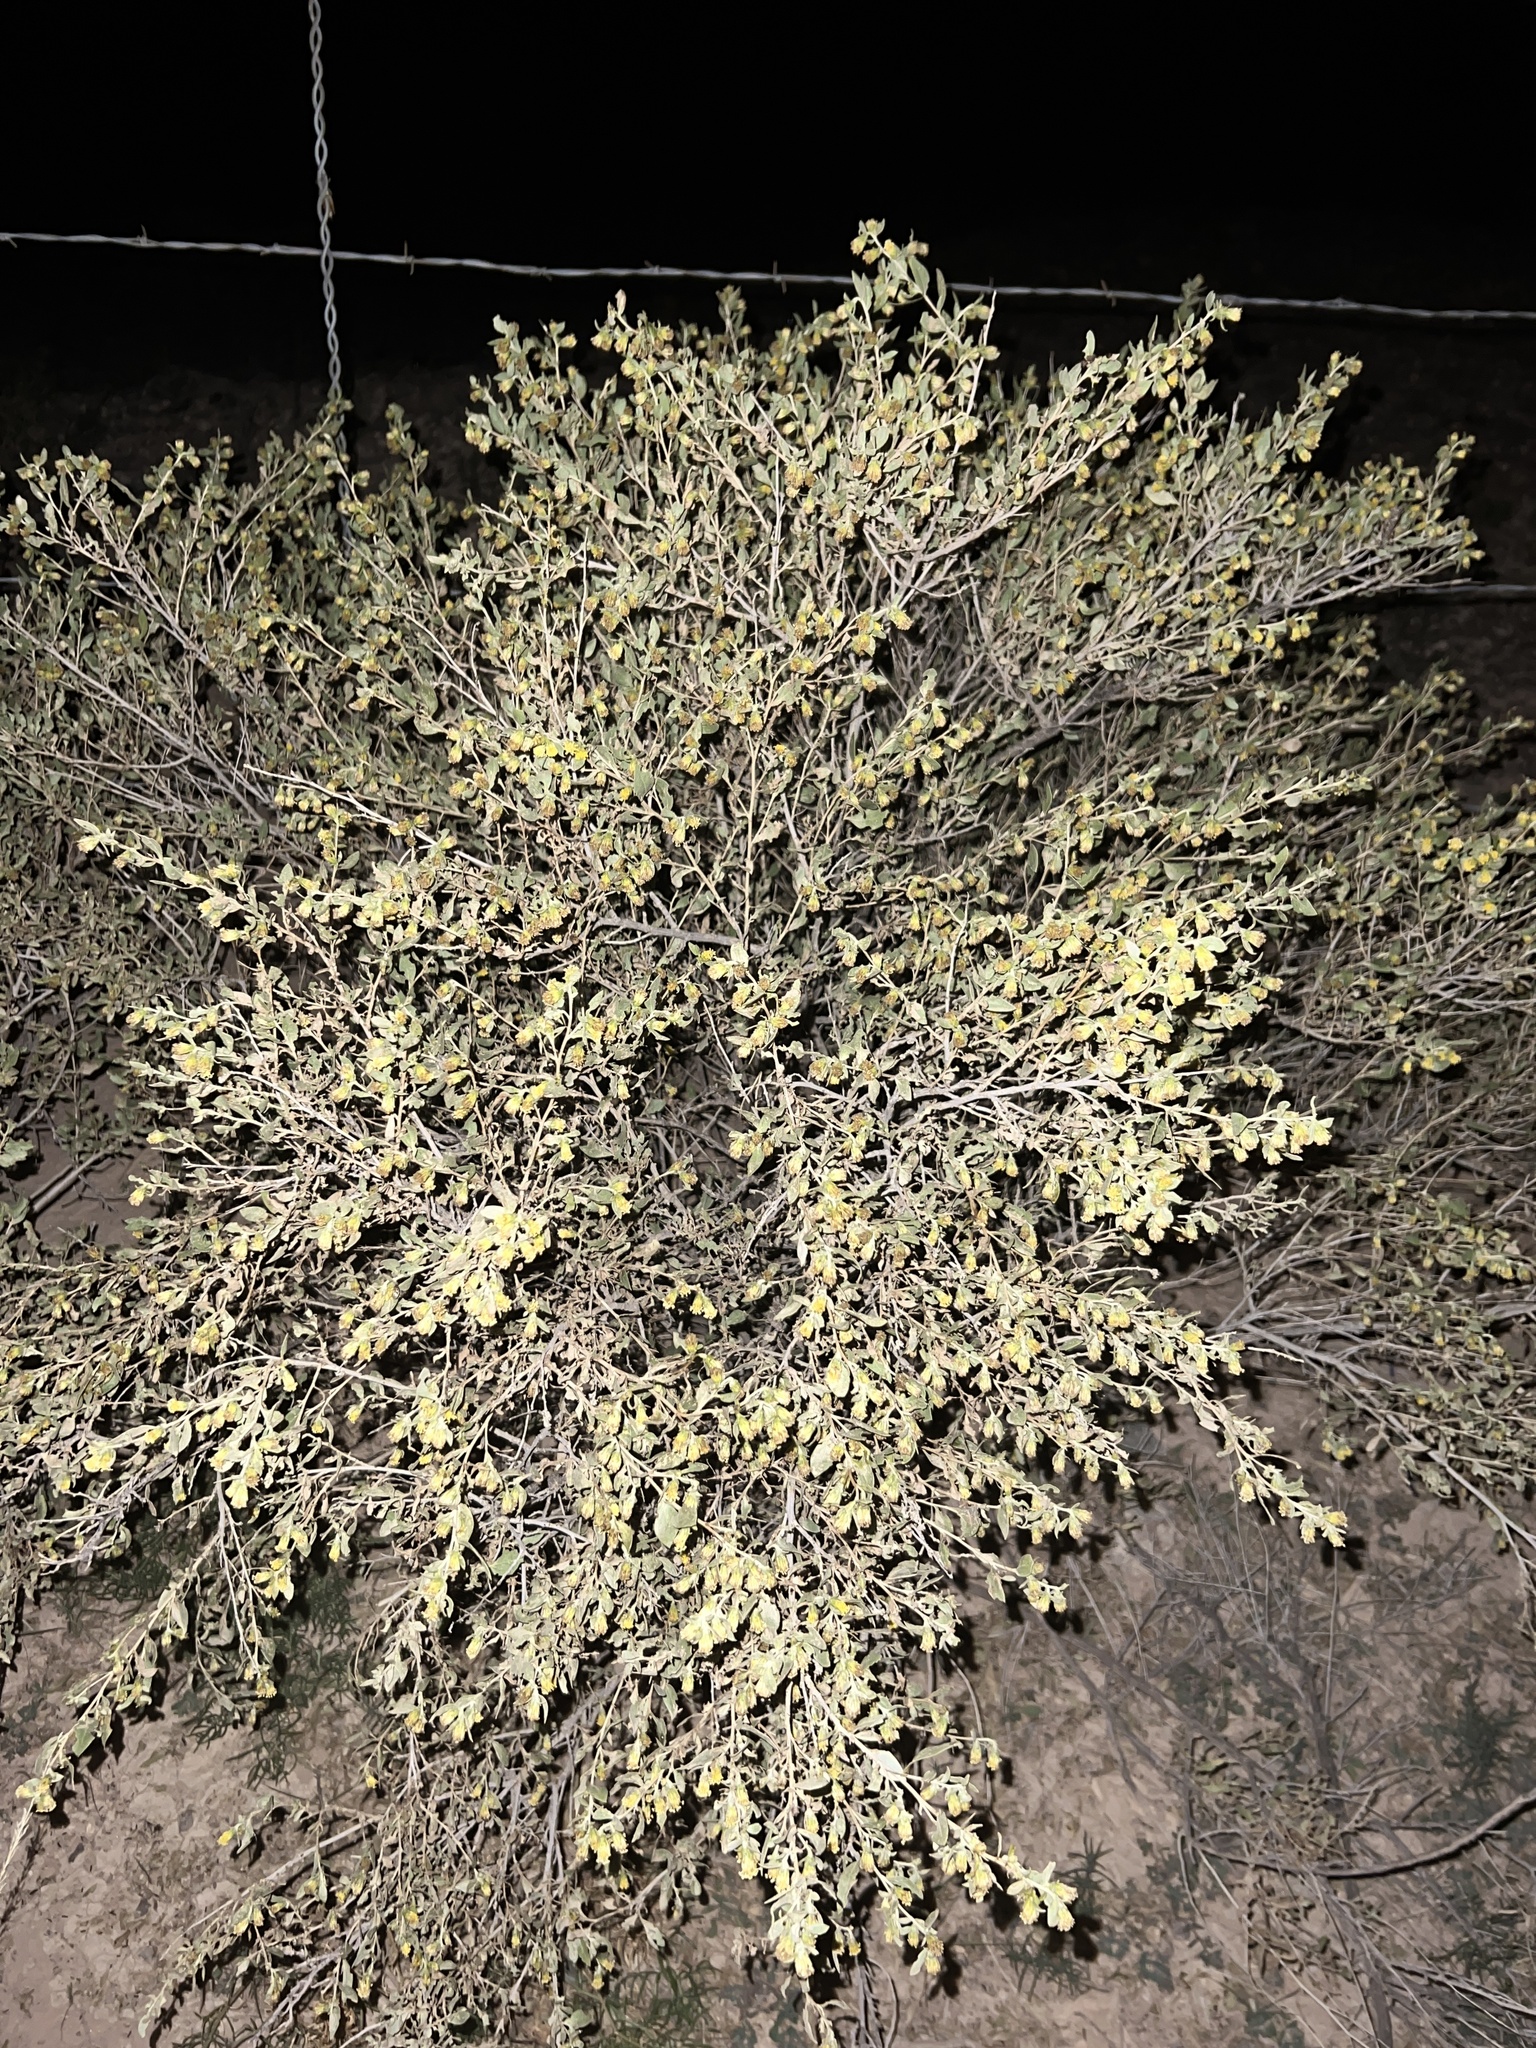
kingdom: Plantae
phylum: Tracheophyta
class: Magnoliopsida
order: Asterales
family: Asteraceae
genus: Flourensia
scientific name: Flourensia cernua
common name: Varnishbush
